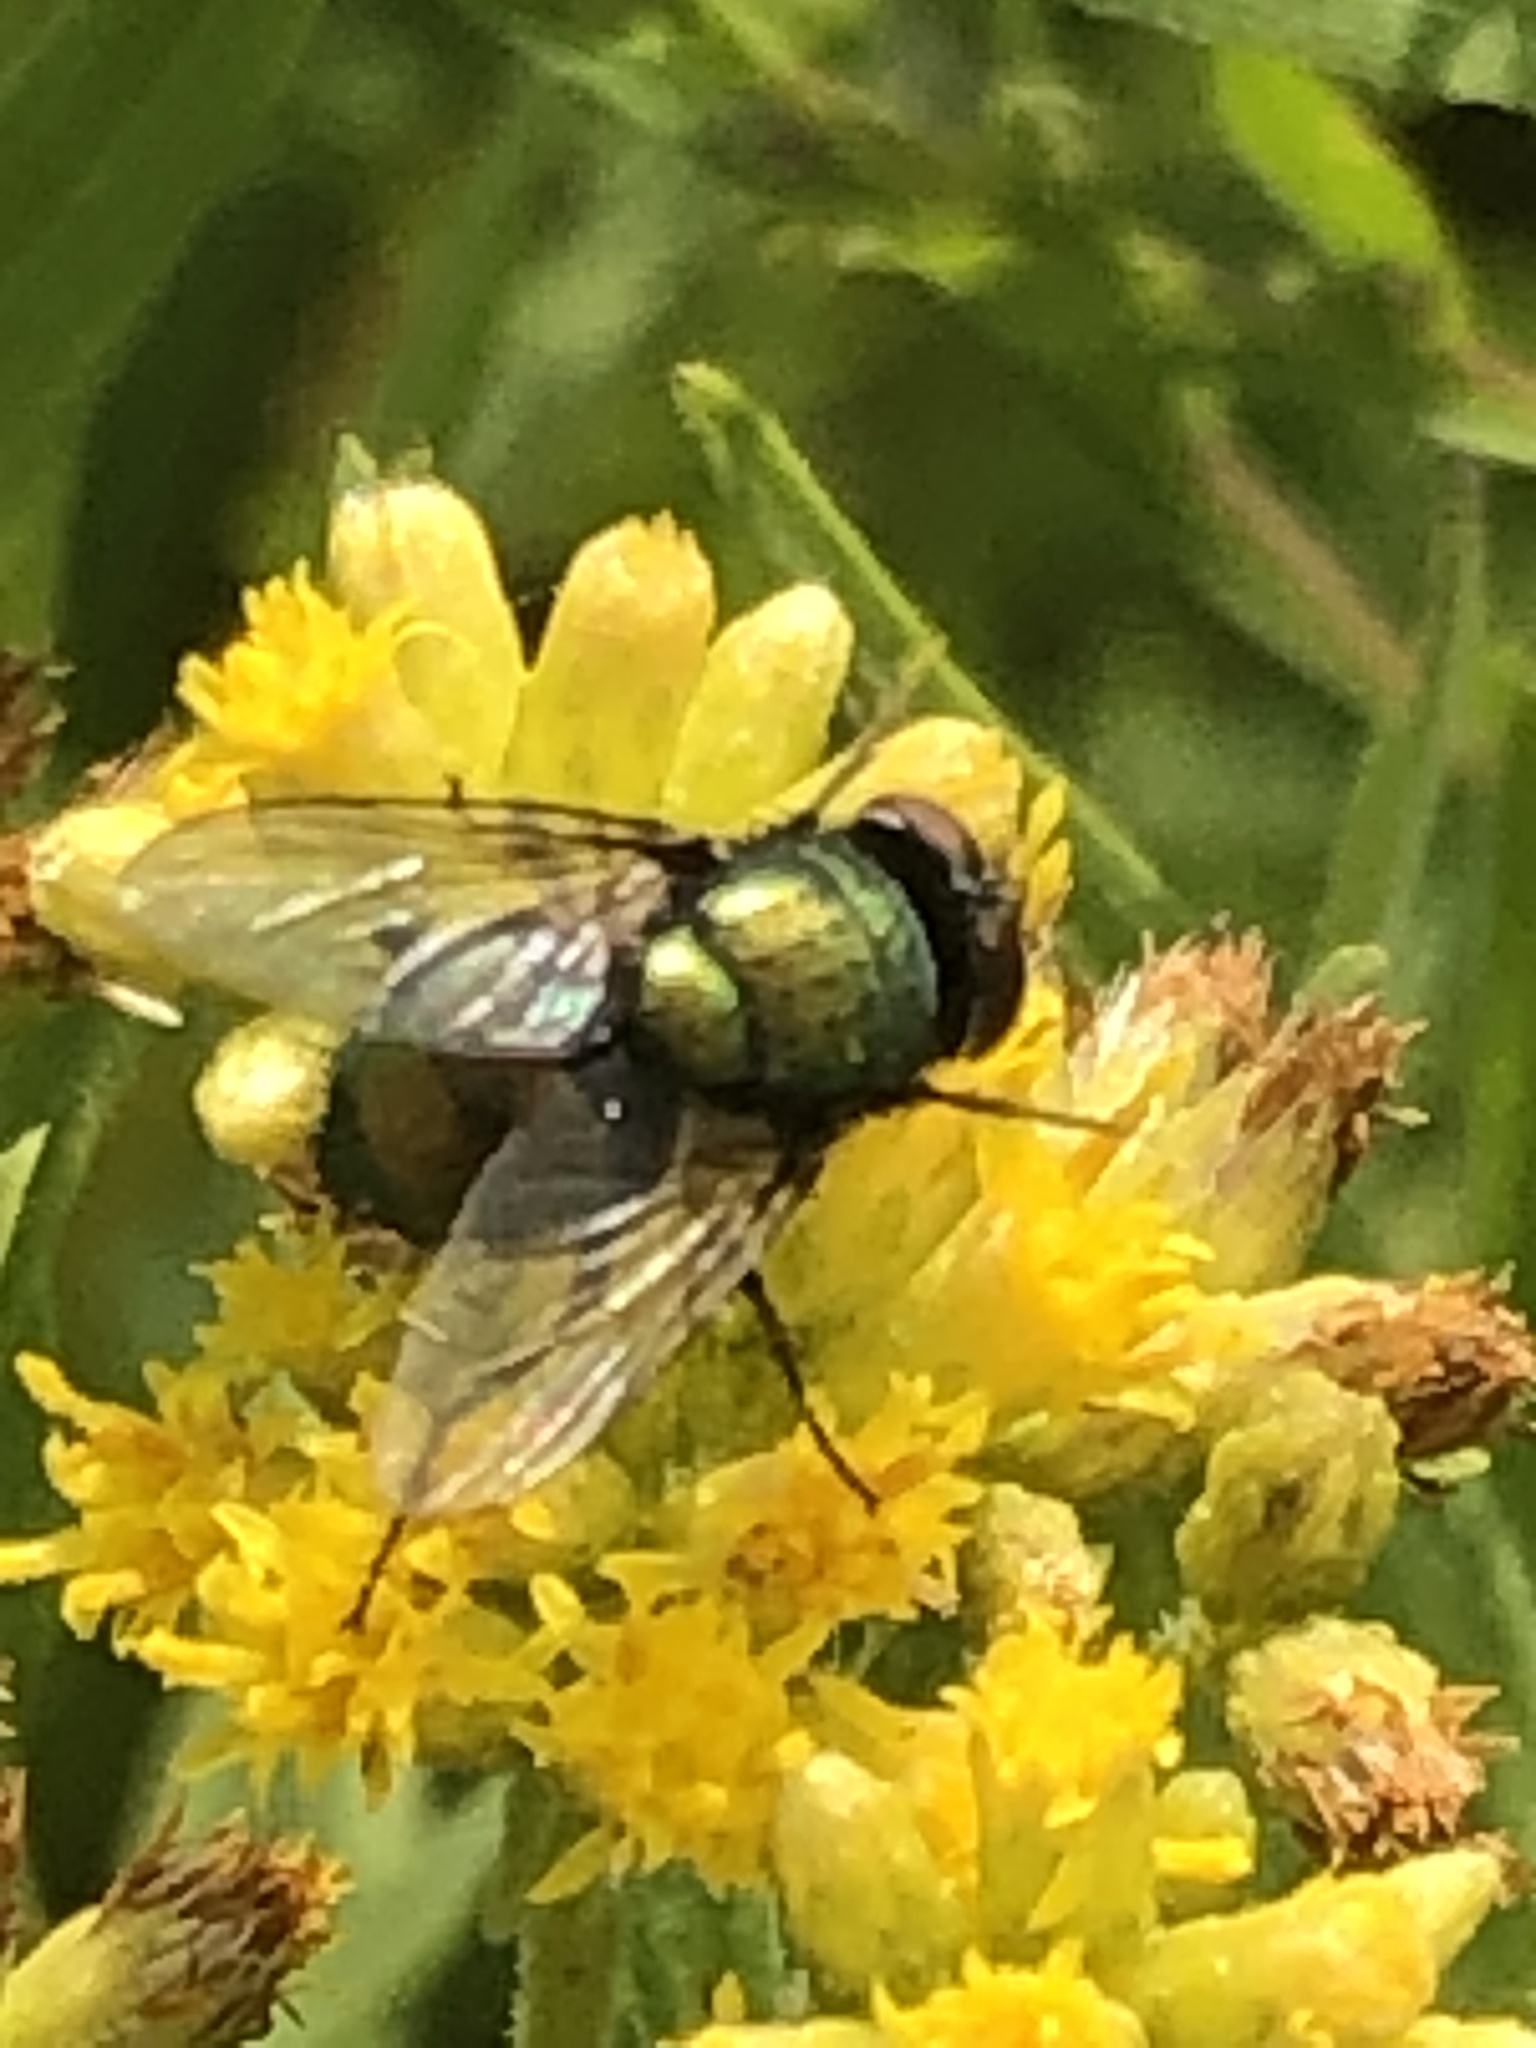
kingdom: Animalia
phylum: Arthropoda
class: Insecta
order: Diptera
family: Calliphoridae
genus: Lucilia
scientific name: Lucilia sericata
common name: Blow fly
